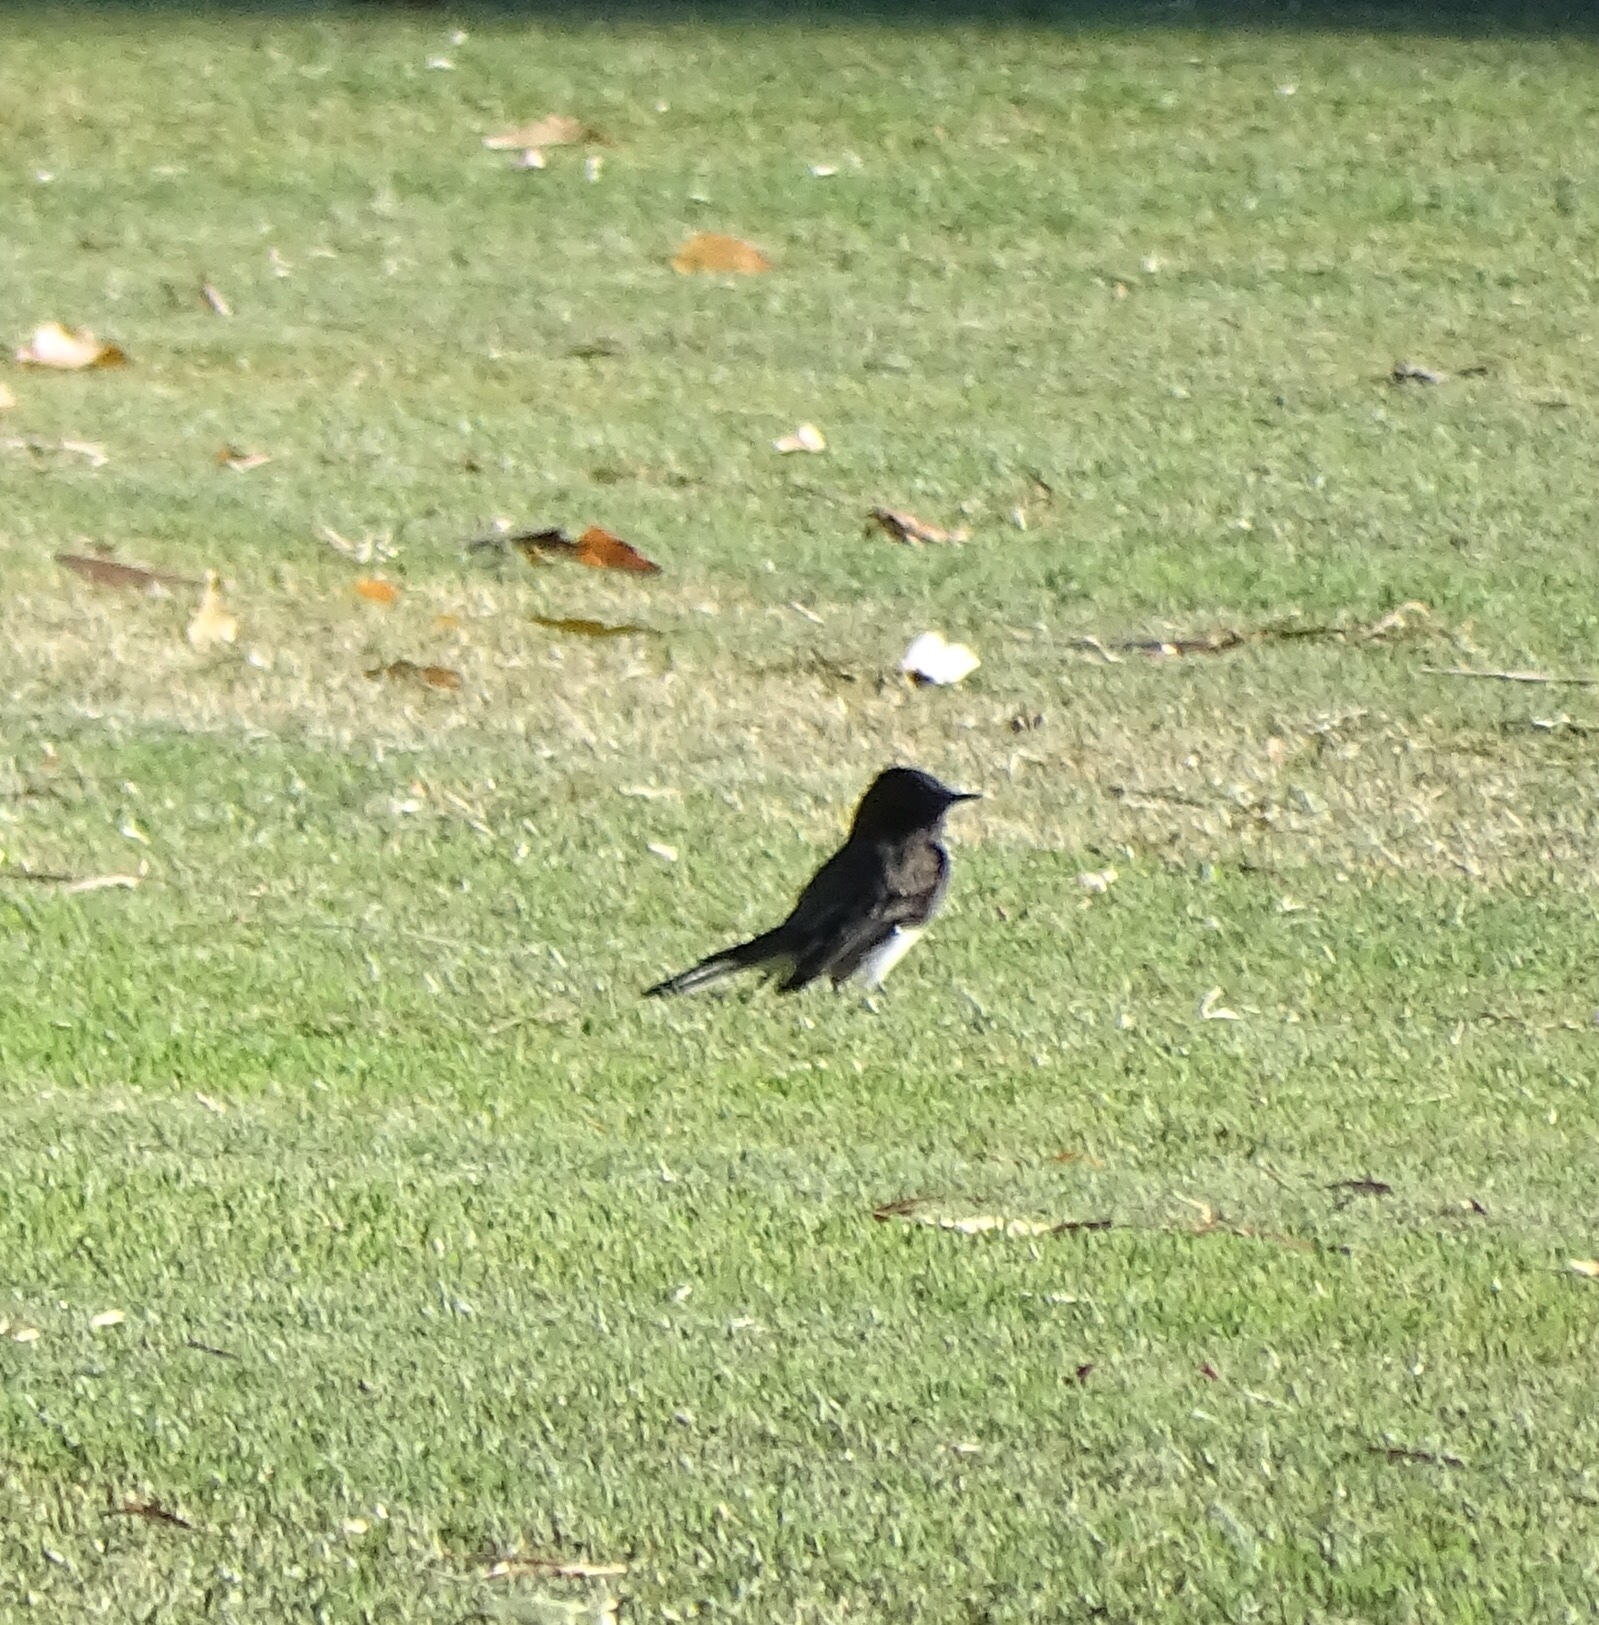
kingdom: Animalia
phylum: Chordata
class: Aves
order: Passeriformes
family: Tyrannidae
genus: Sayornis
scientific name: Sayornis nigricans
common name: Black phoebe
